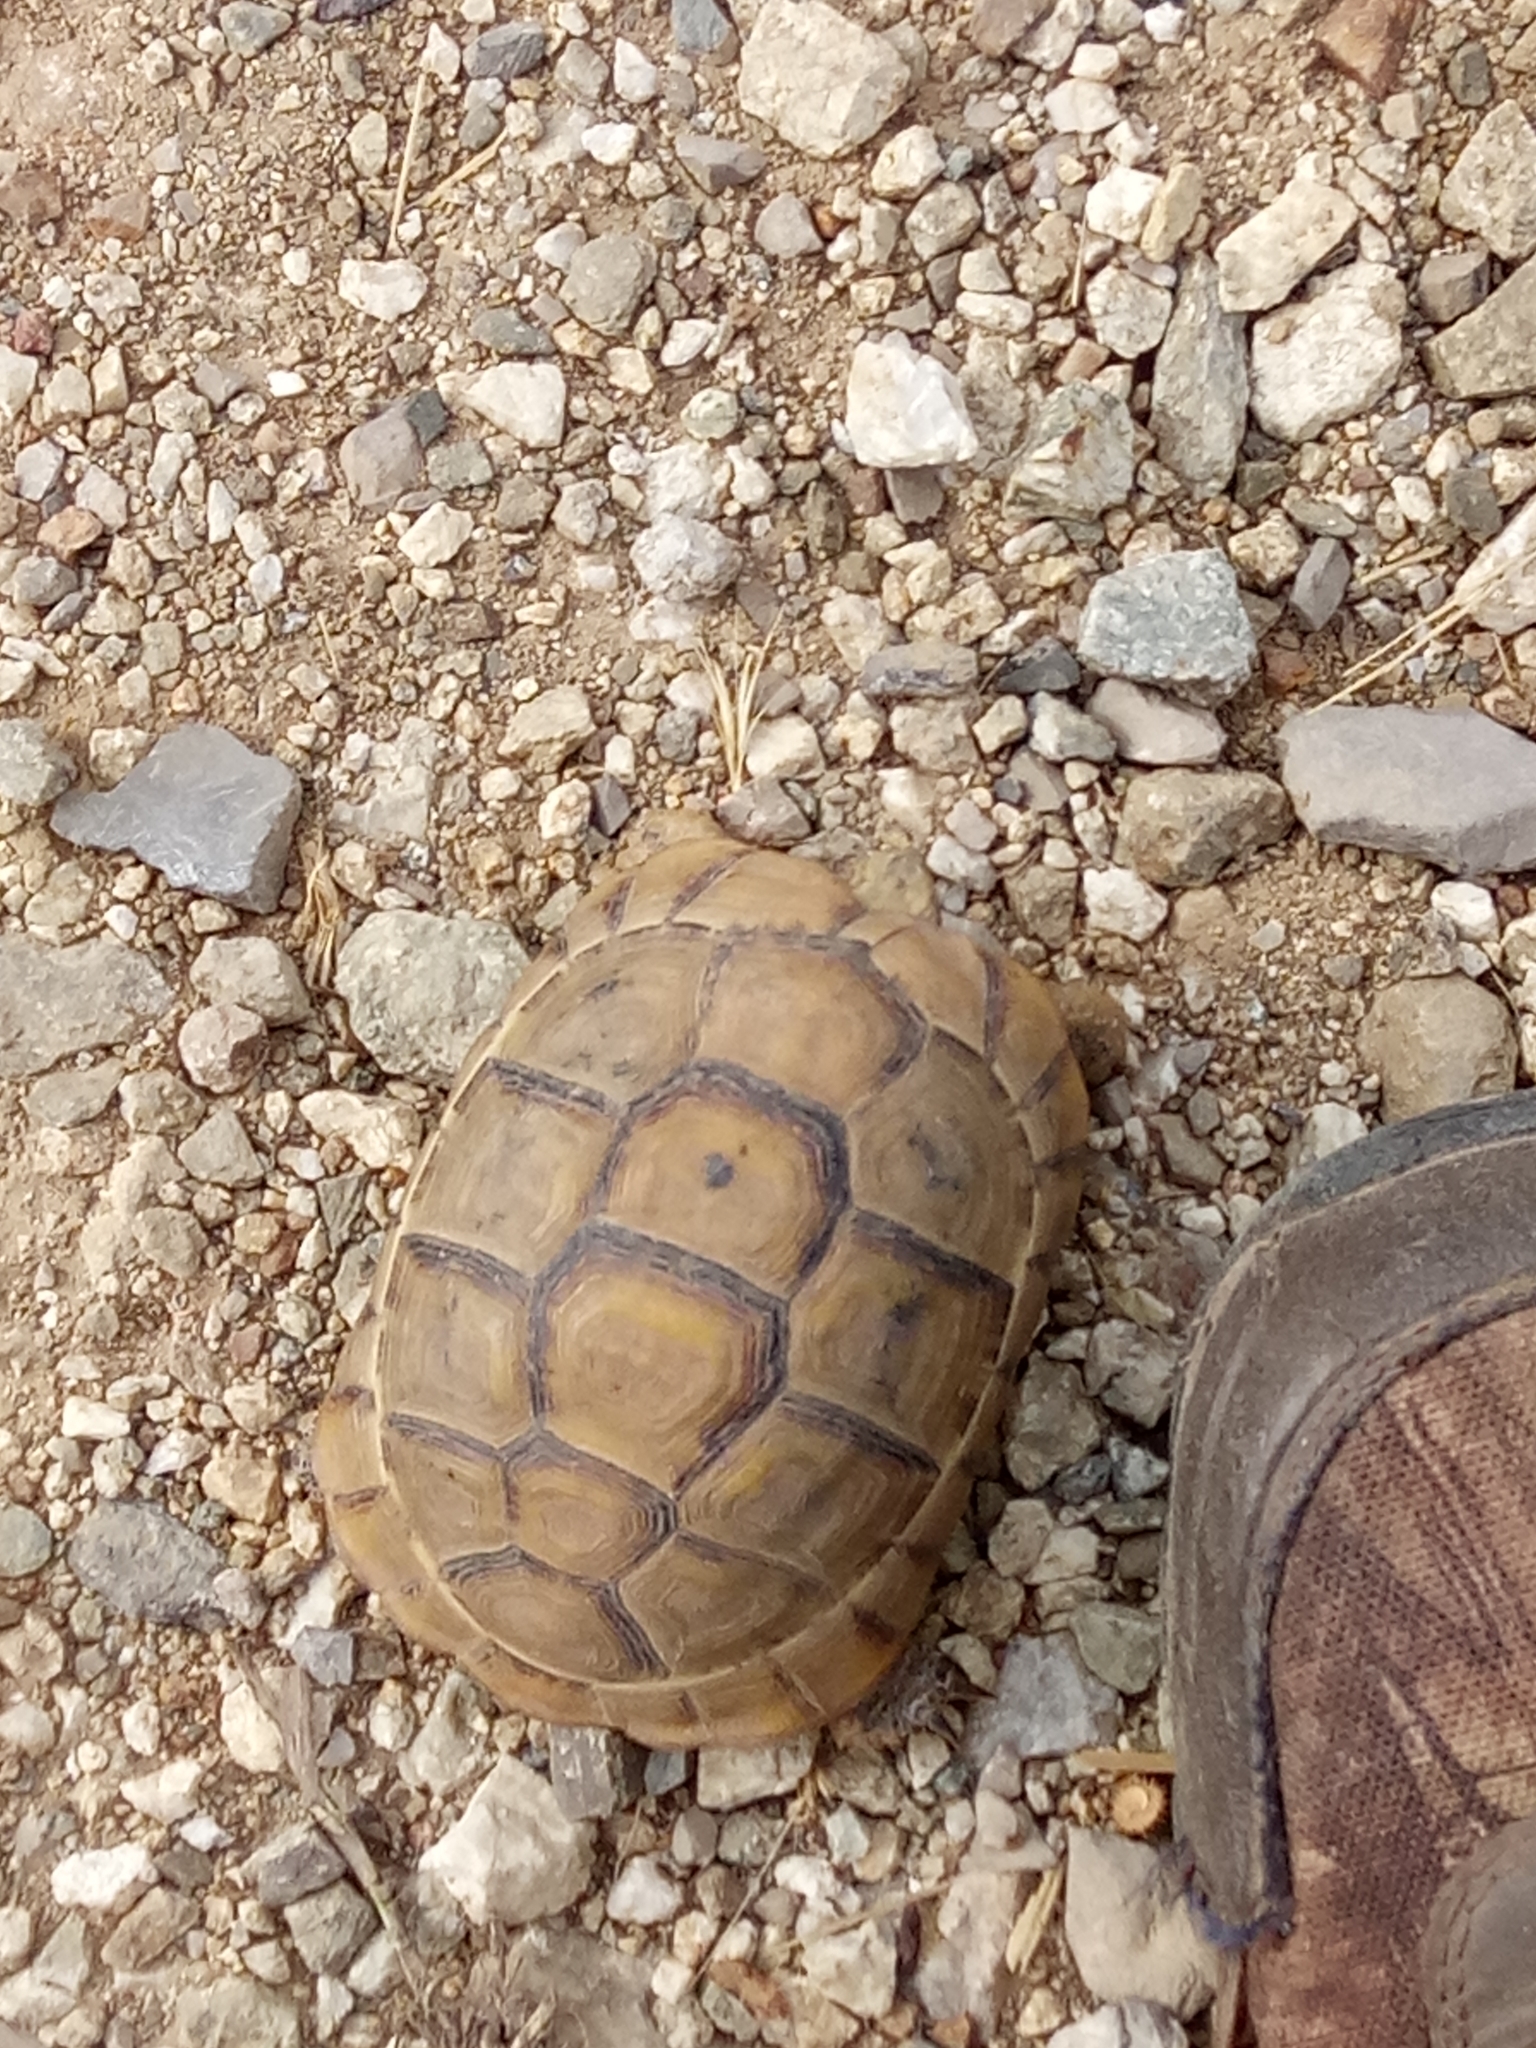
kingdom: Animalia
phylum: Chordata
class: Testudines
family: Testudinidae
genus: Testudo
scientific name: Testudo graeca
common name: Common tortoise
